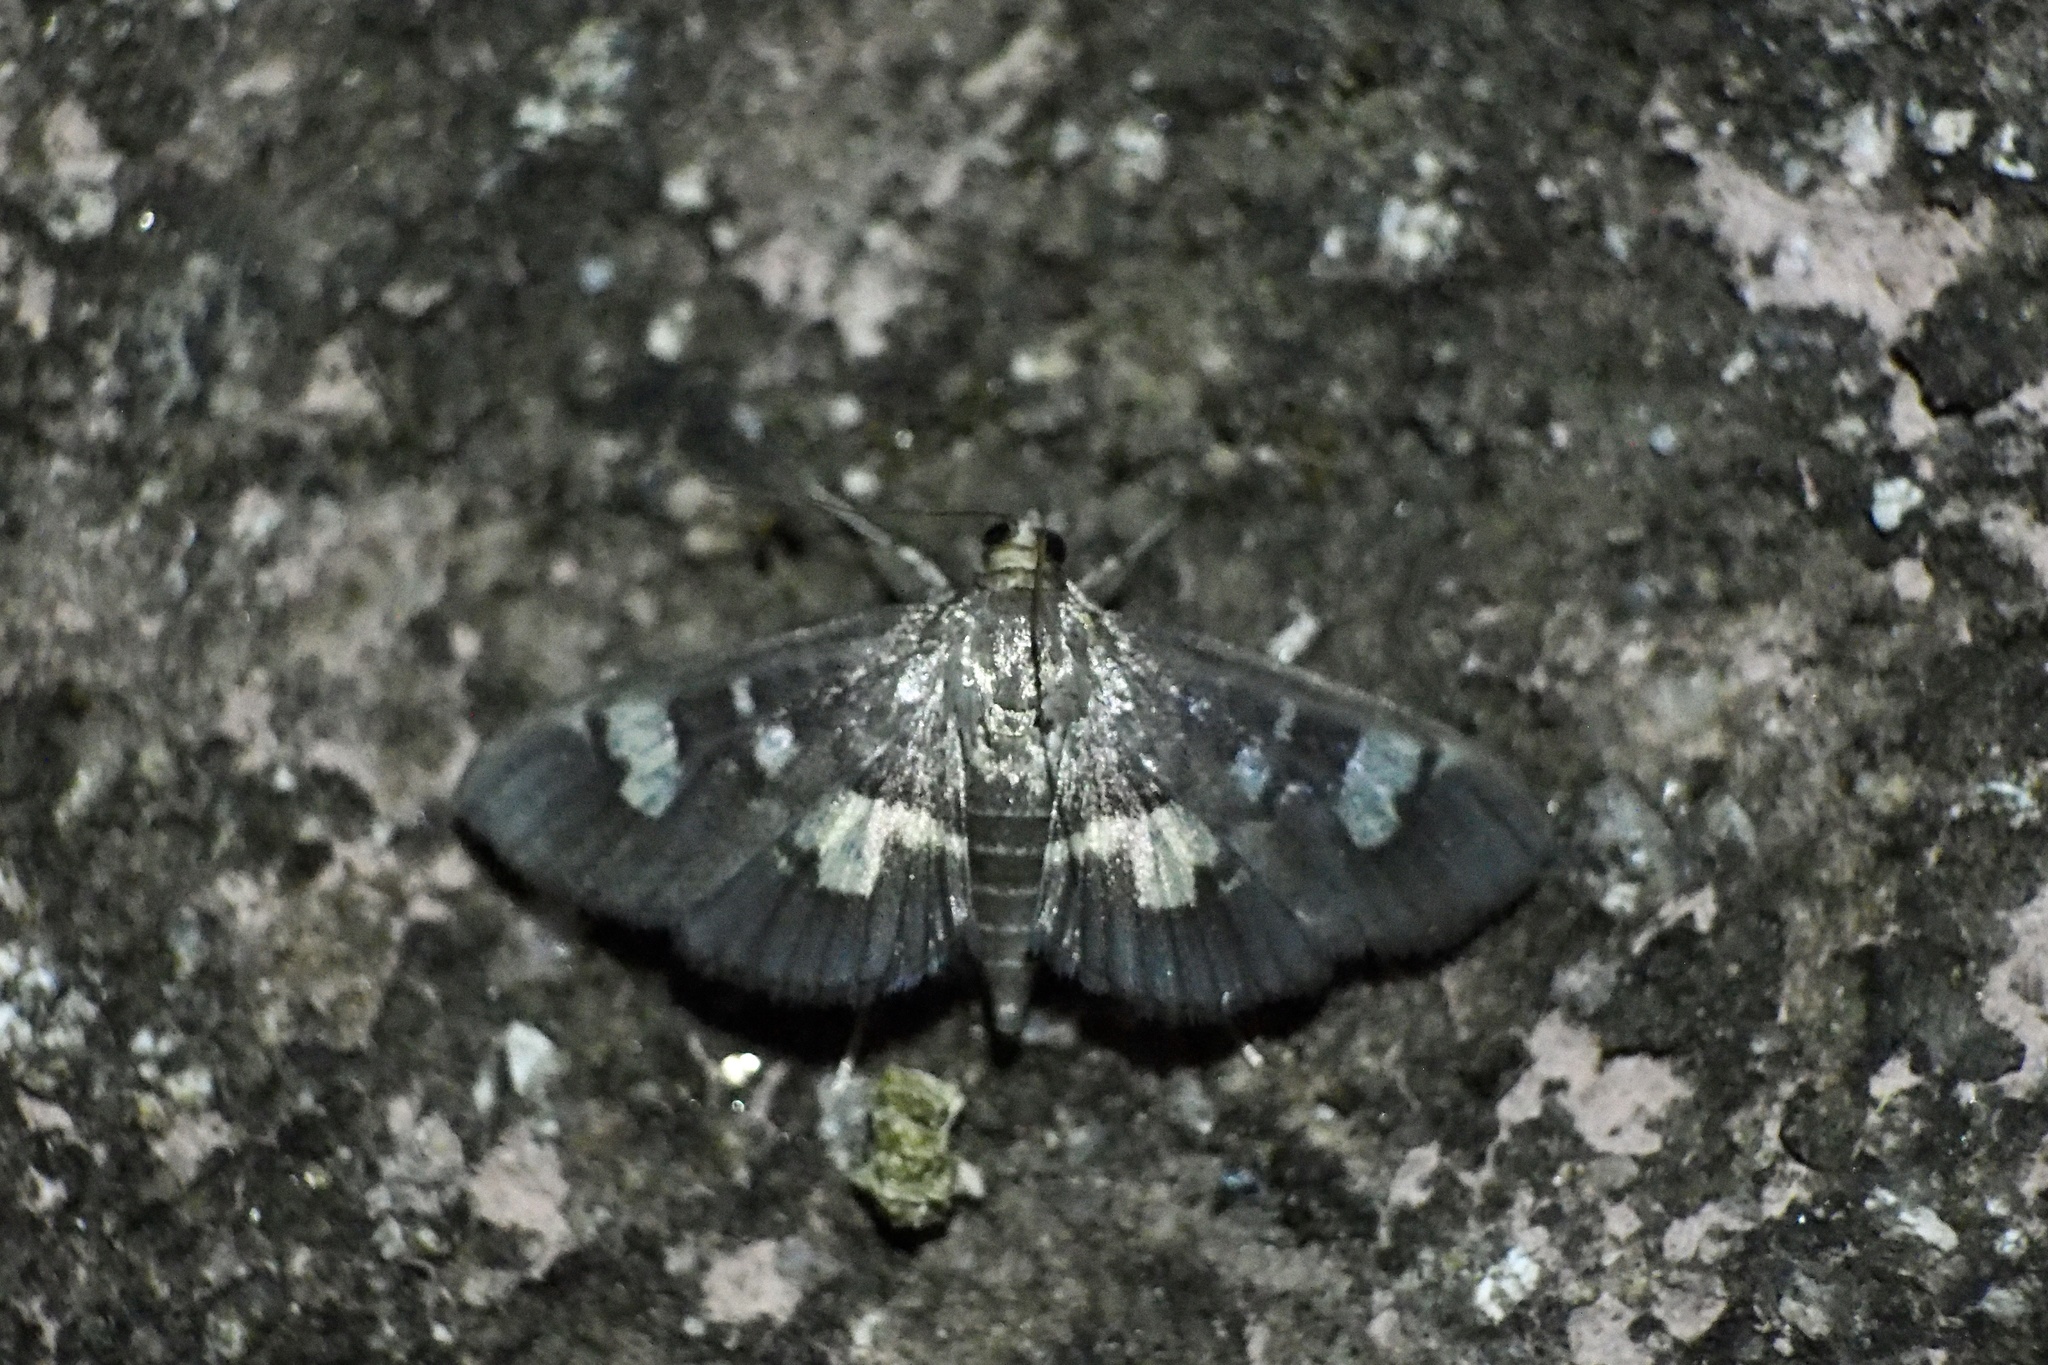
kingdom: Animalia
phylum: Arthropoda
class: Insecta
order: Lepidoptera
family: Crambidae
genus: Uresiphita
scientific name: Uresiphita tricolor
